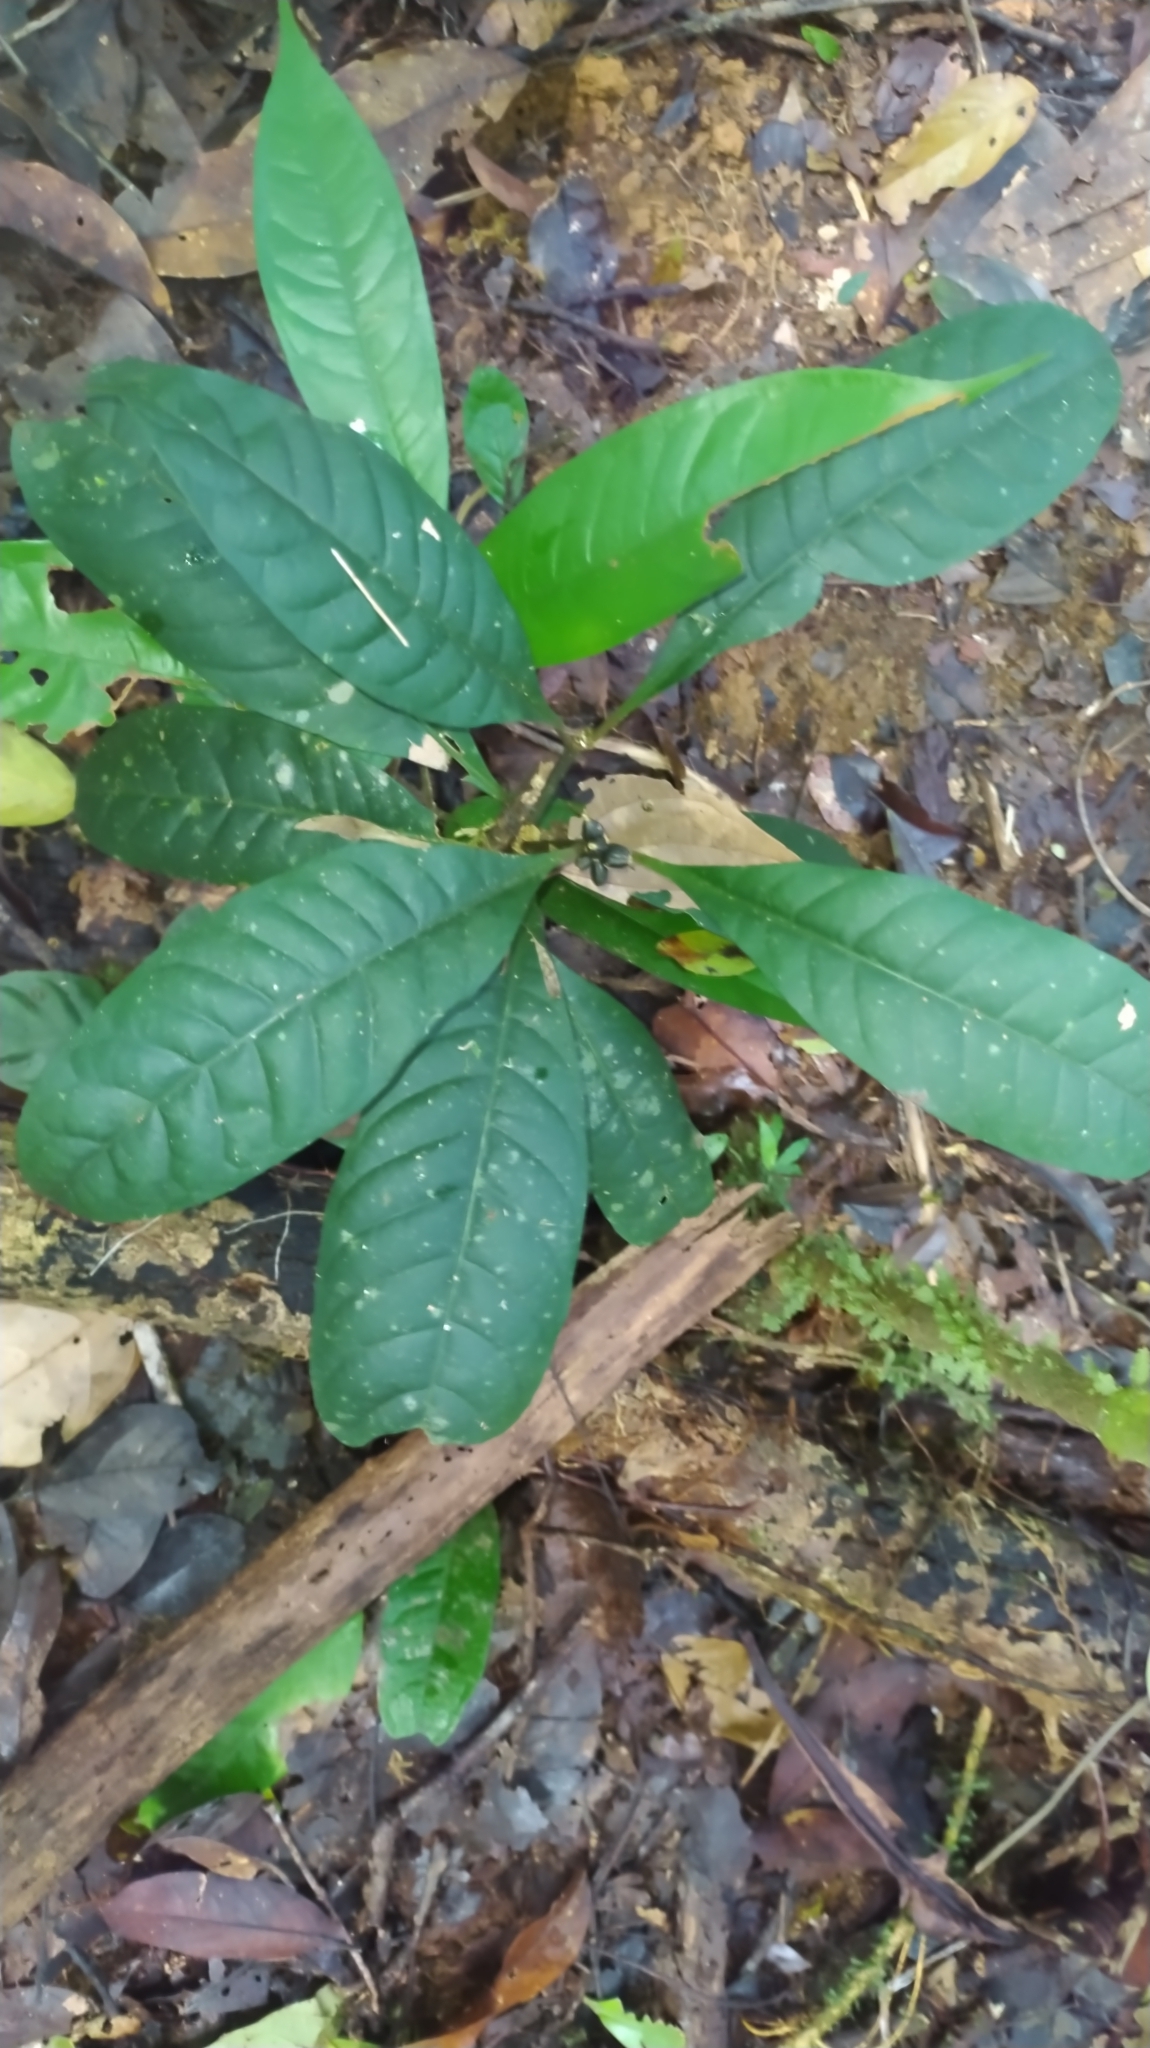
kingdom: Plantae
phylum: Tracheophyta
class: Magnoliopsida
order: Gentianales
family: Rubiaceae
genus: Eumachia
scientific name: Eumachia kappleri
